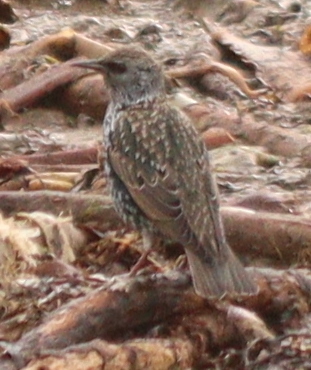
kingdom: Animalia
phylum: Chordata
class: Aves
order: Passeriformes
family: Sturnidae
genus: Sturnus
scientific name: Sturnus vulgaris
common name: Common starling
